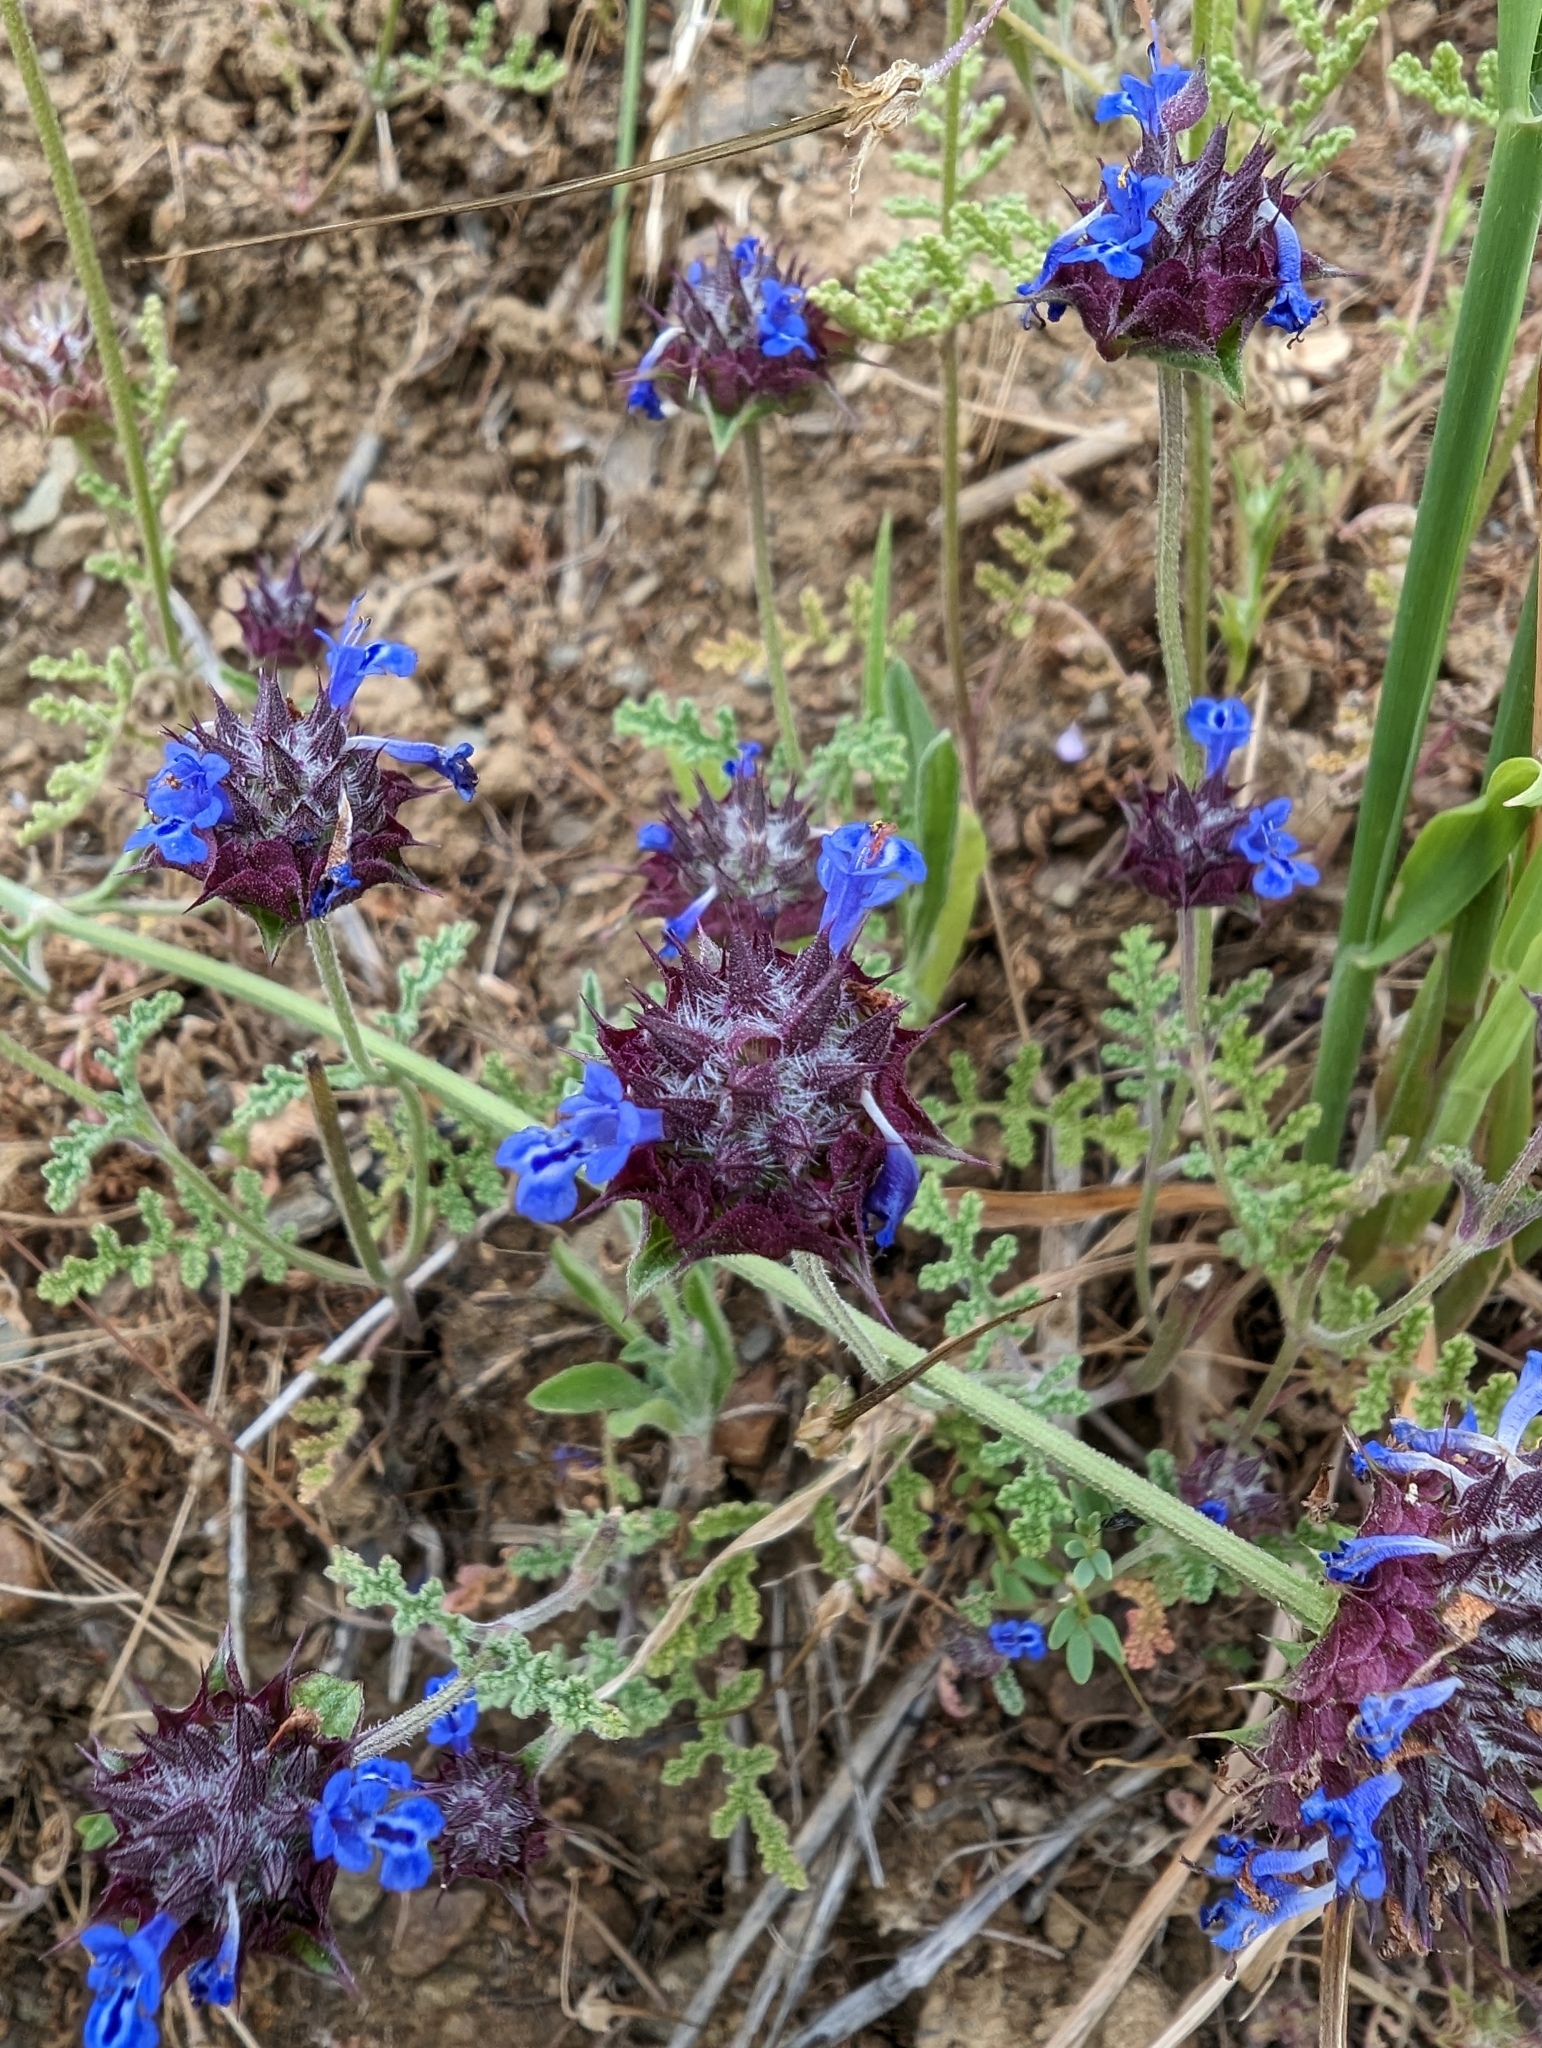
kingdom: Plantae
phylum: Tracheophyta
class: Magnoliopsida
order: Lamiales
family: Lamiaceae
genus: Salvia
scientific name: Salvia columbariae
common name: Chia
